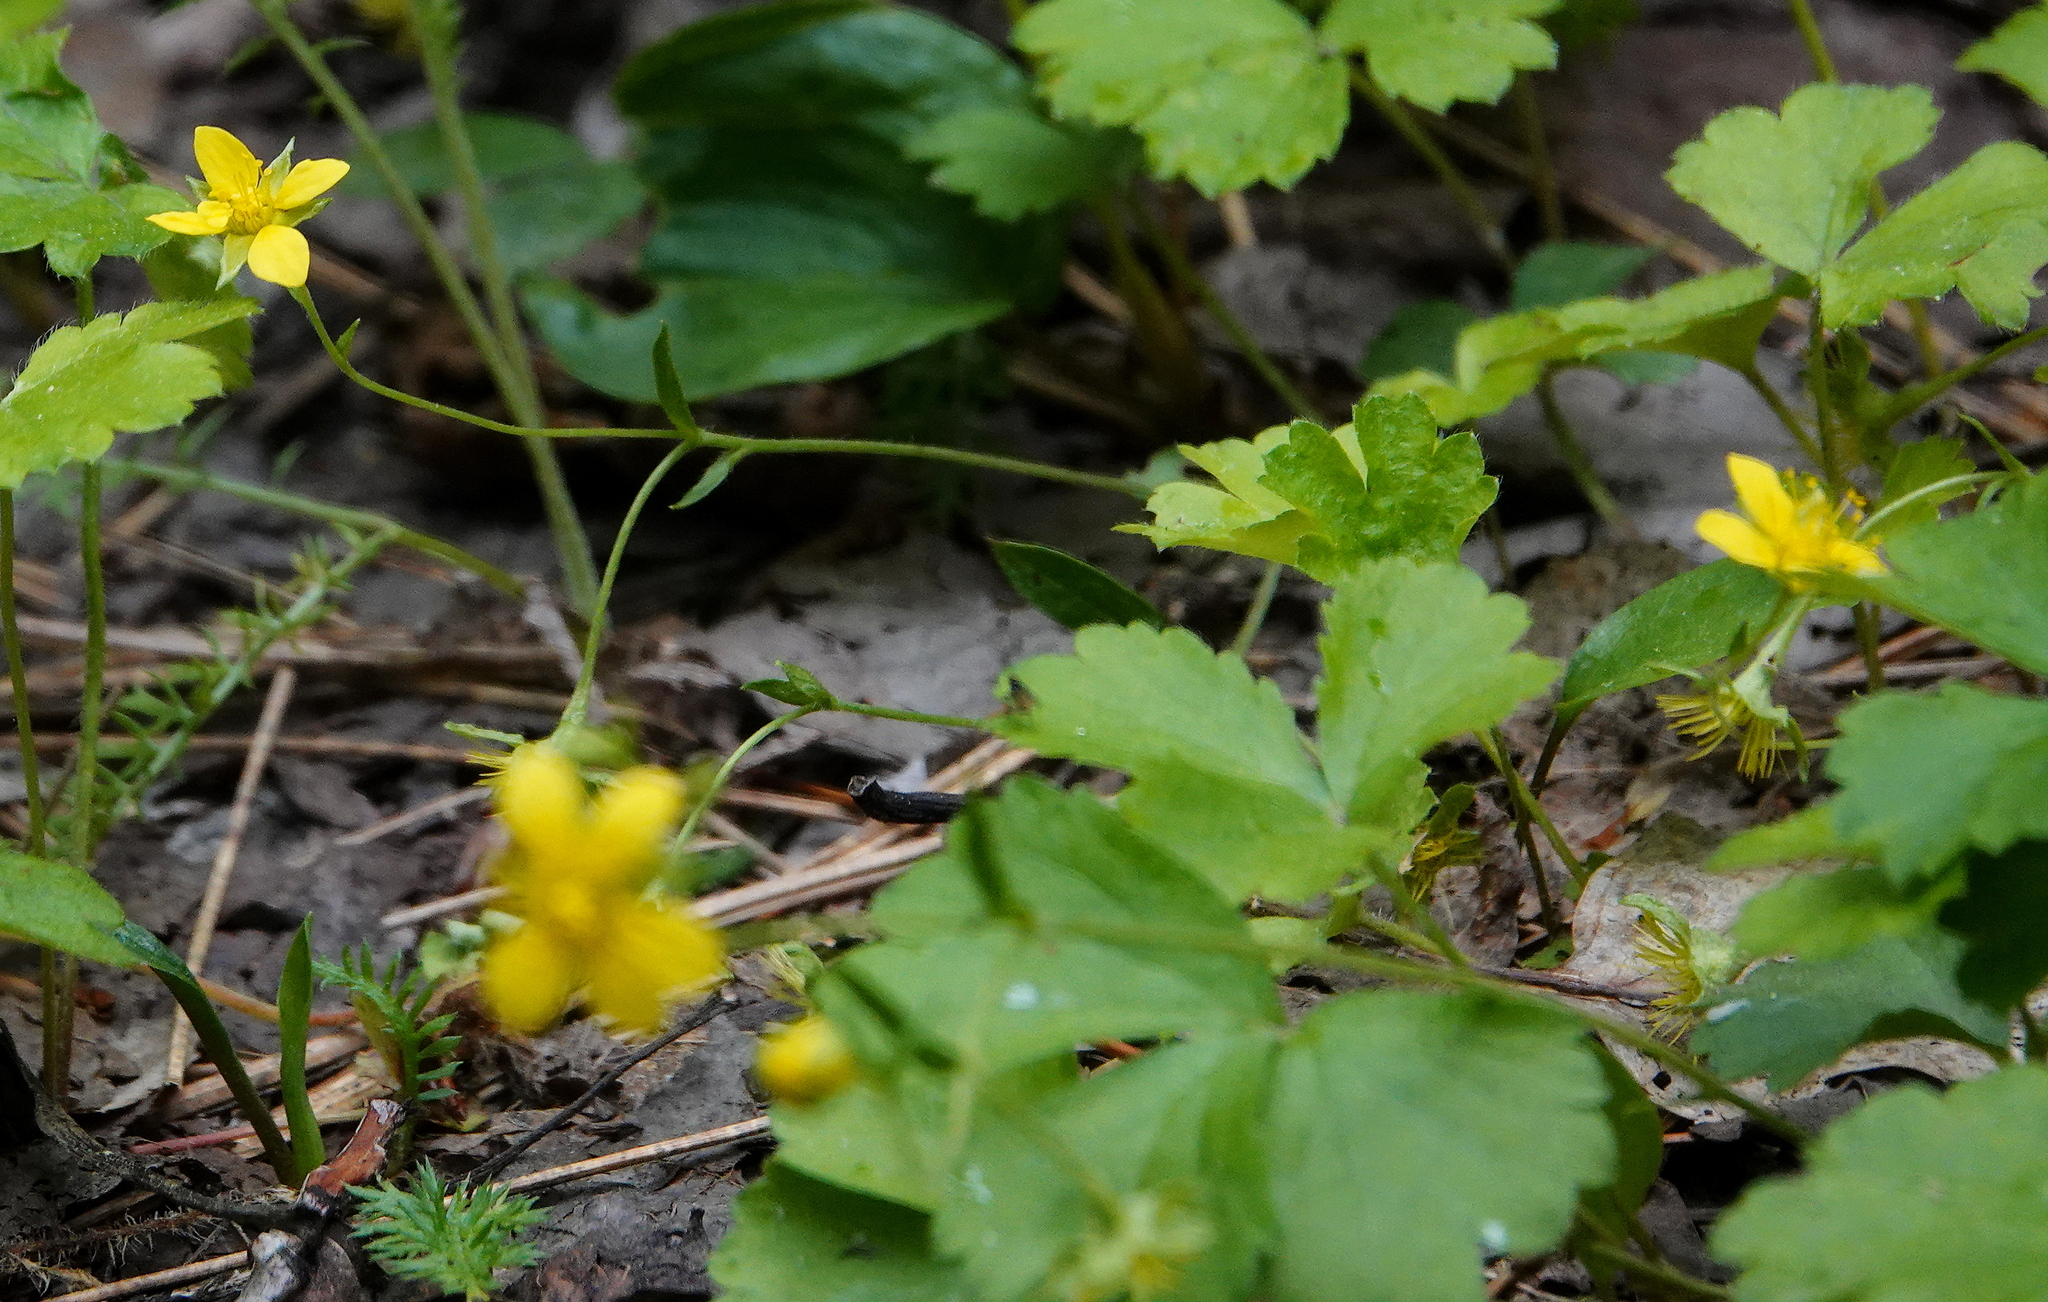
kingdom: Plantae
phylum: Tracheophyta
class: Magnoliopsida
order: Rosales
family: Rosaceae
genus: Geum
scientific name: Geum fragarioides
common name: Appalachian barren strawberry
